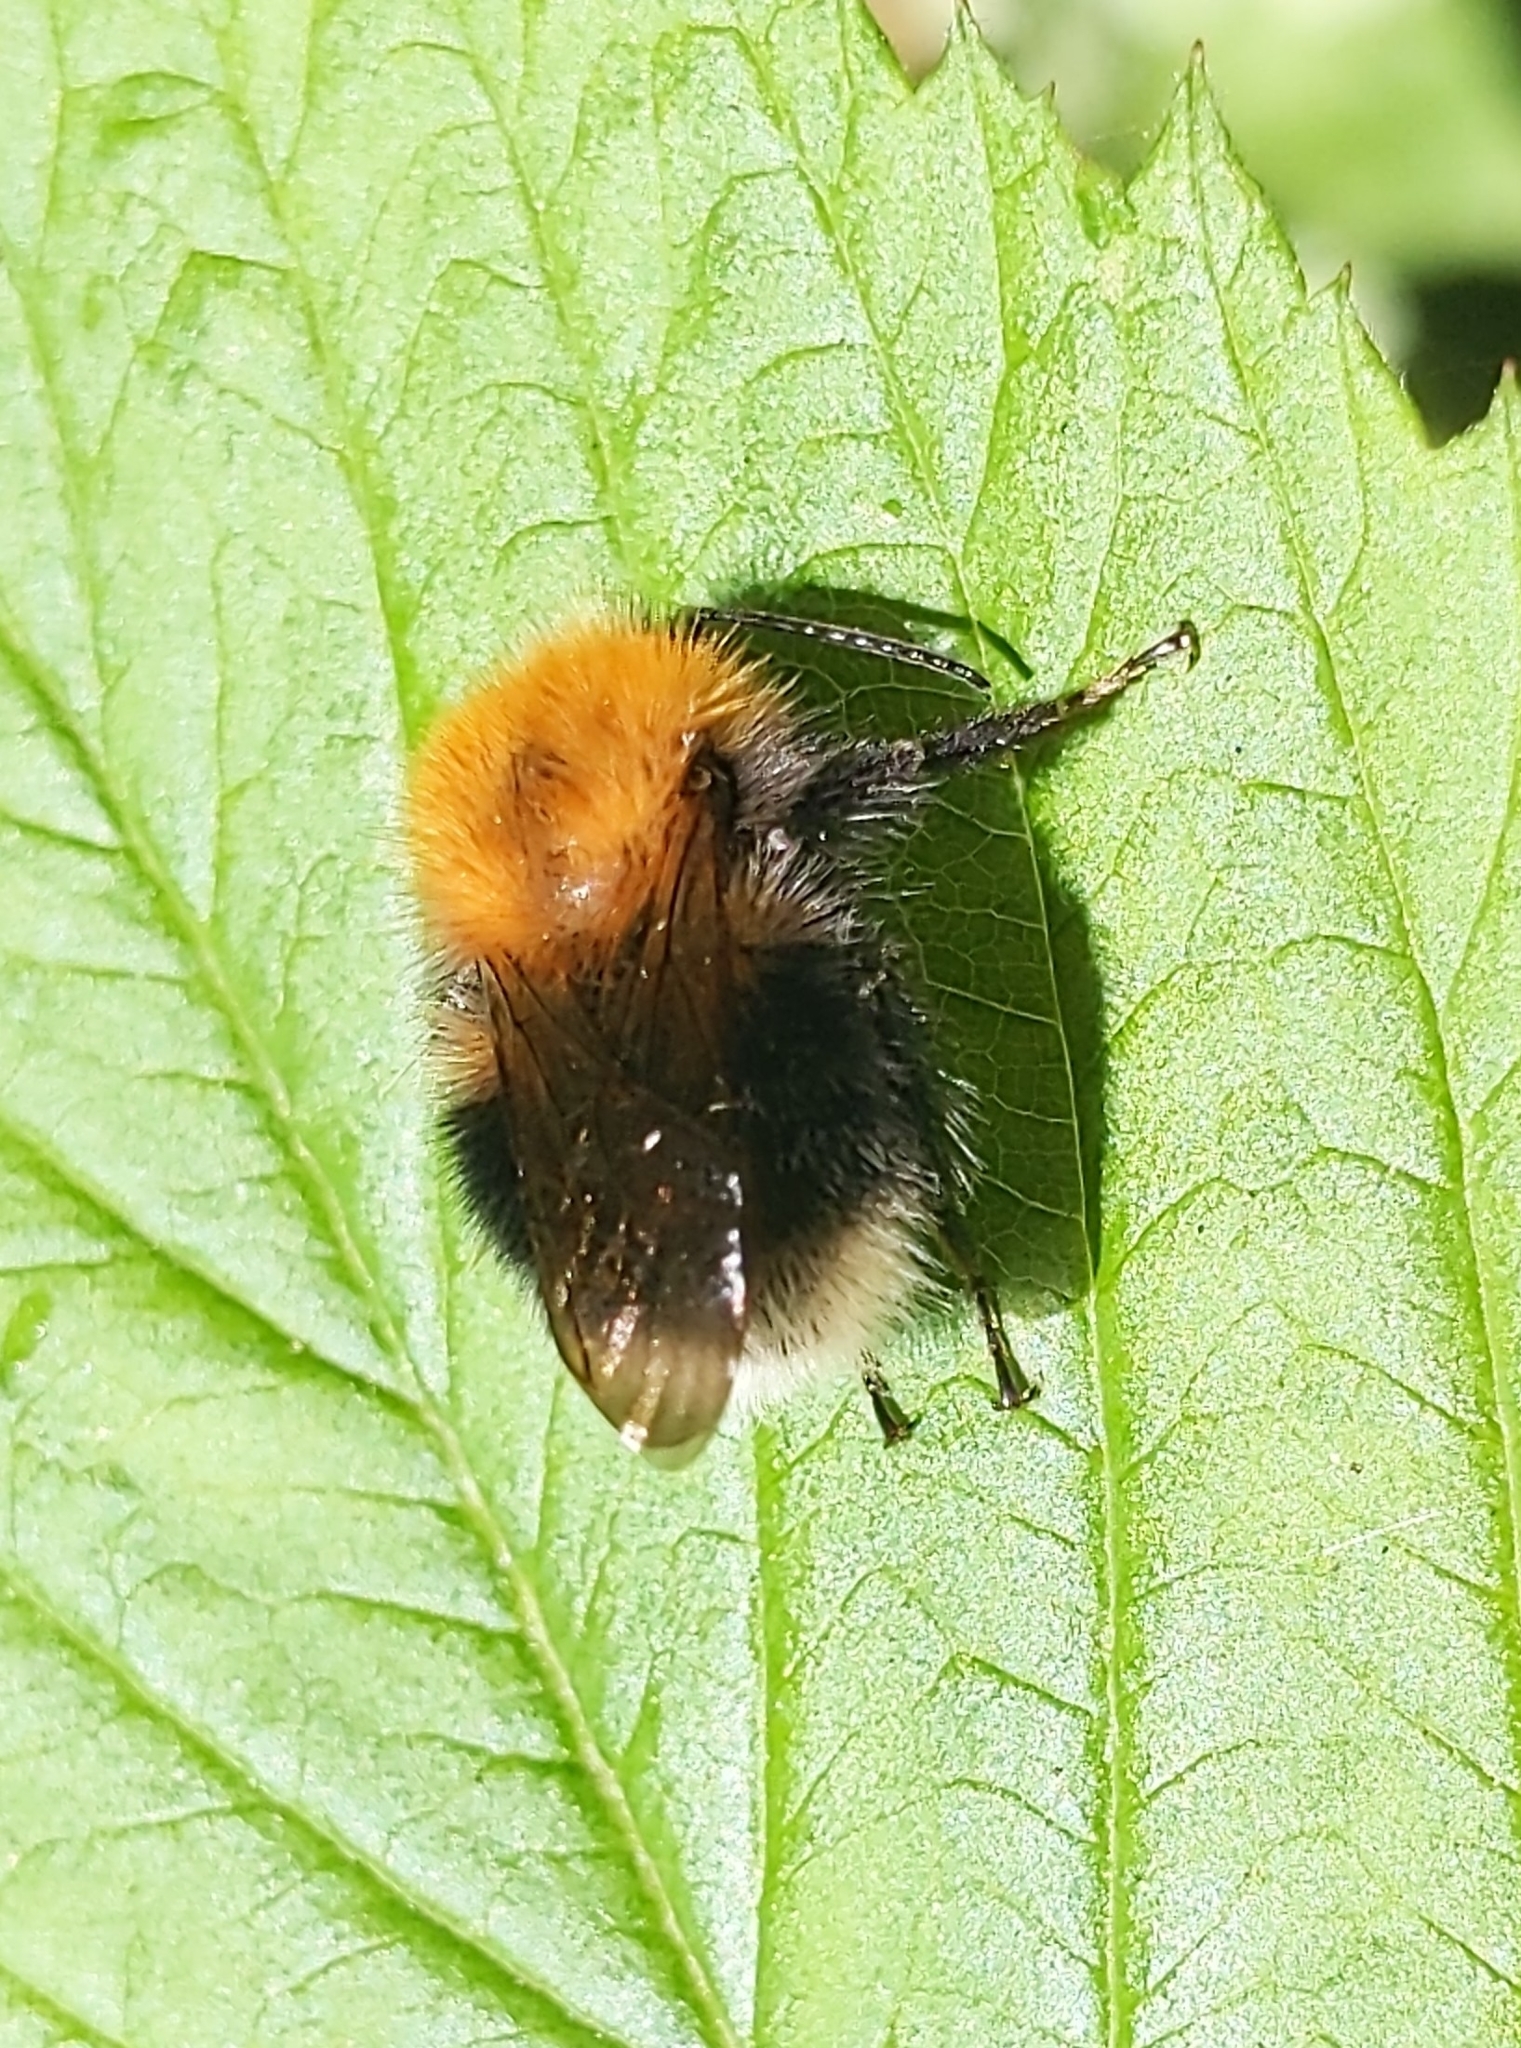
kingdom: Animalia
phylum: Arthropoda
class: Insecta
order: Hymenoptera
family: Apidae
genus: Bombus
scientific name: Bombus hypnorum
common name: New garden bumblebee
